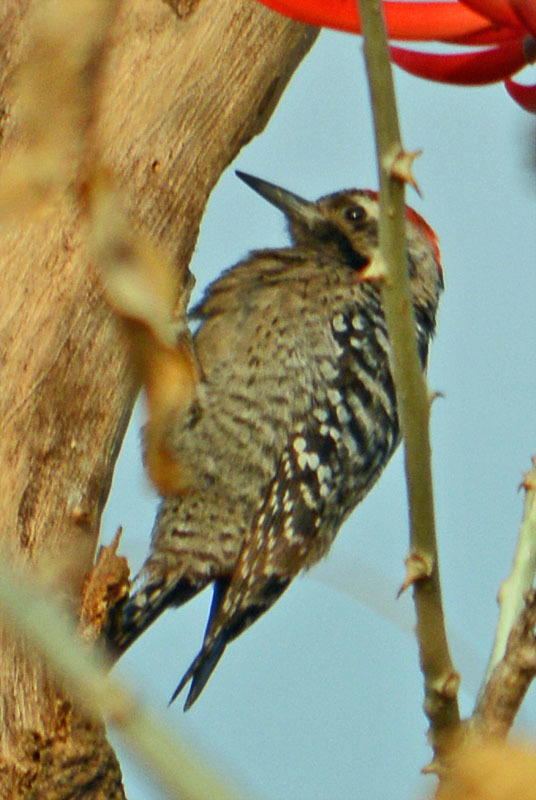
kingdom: Animalia
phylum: Chordata
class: Aves
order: Piciformes
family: Picidae
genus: Dryobates
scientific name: Dryobates scalaris
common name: Ladder-backed woodpecker
